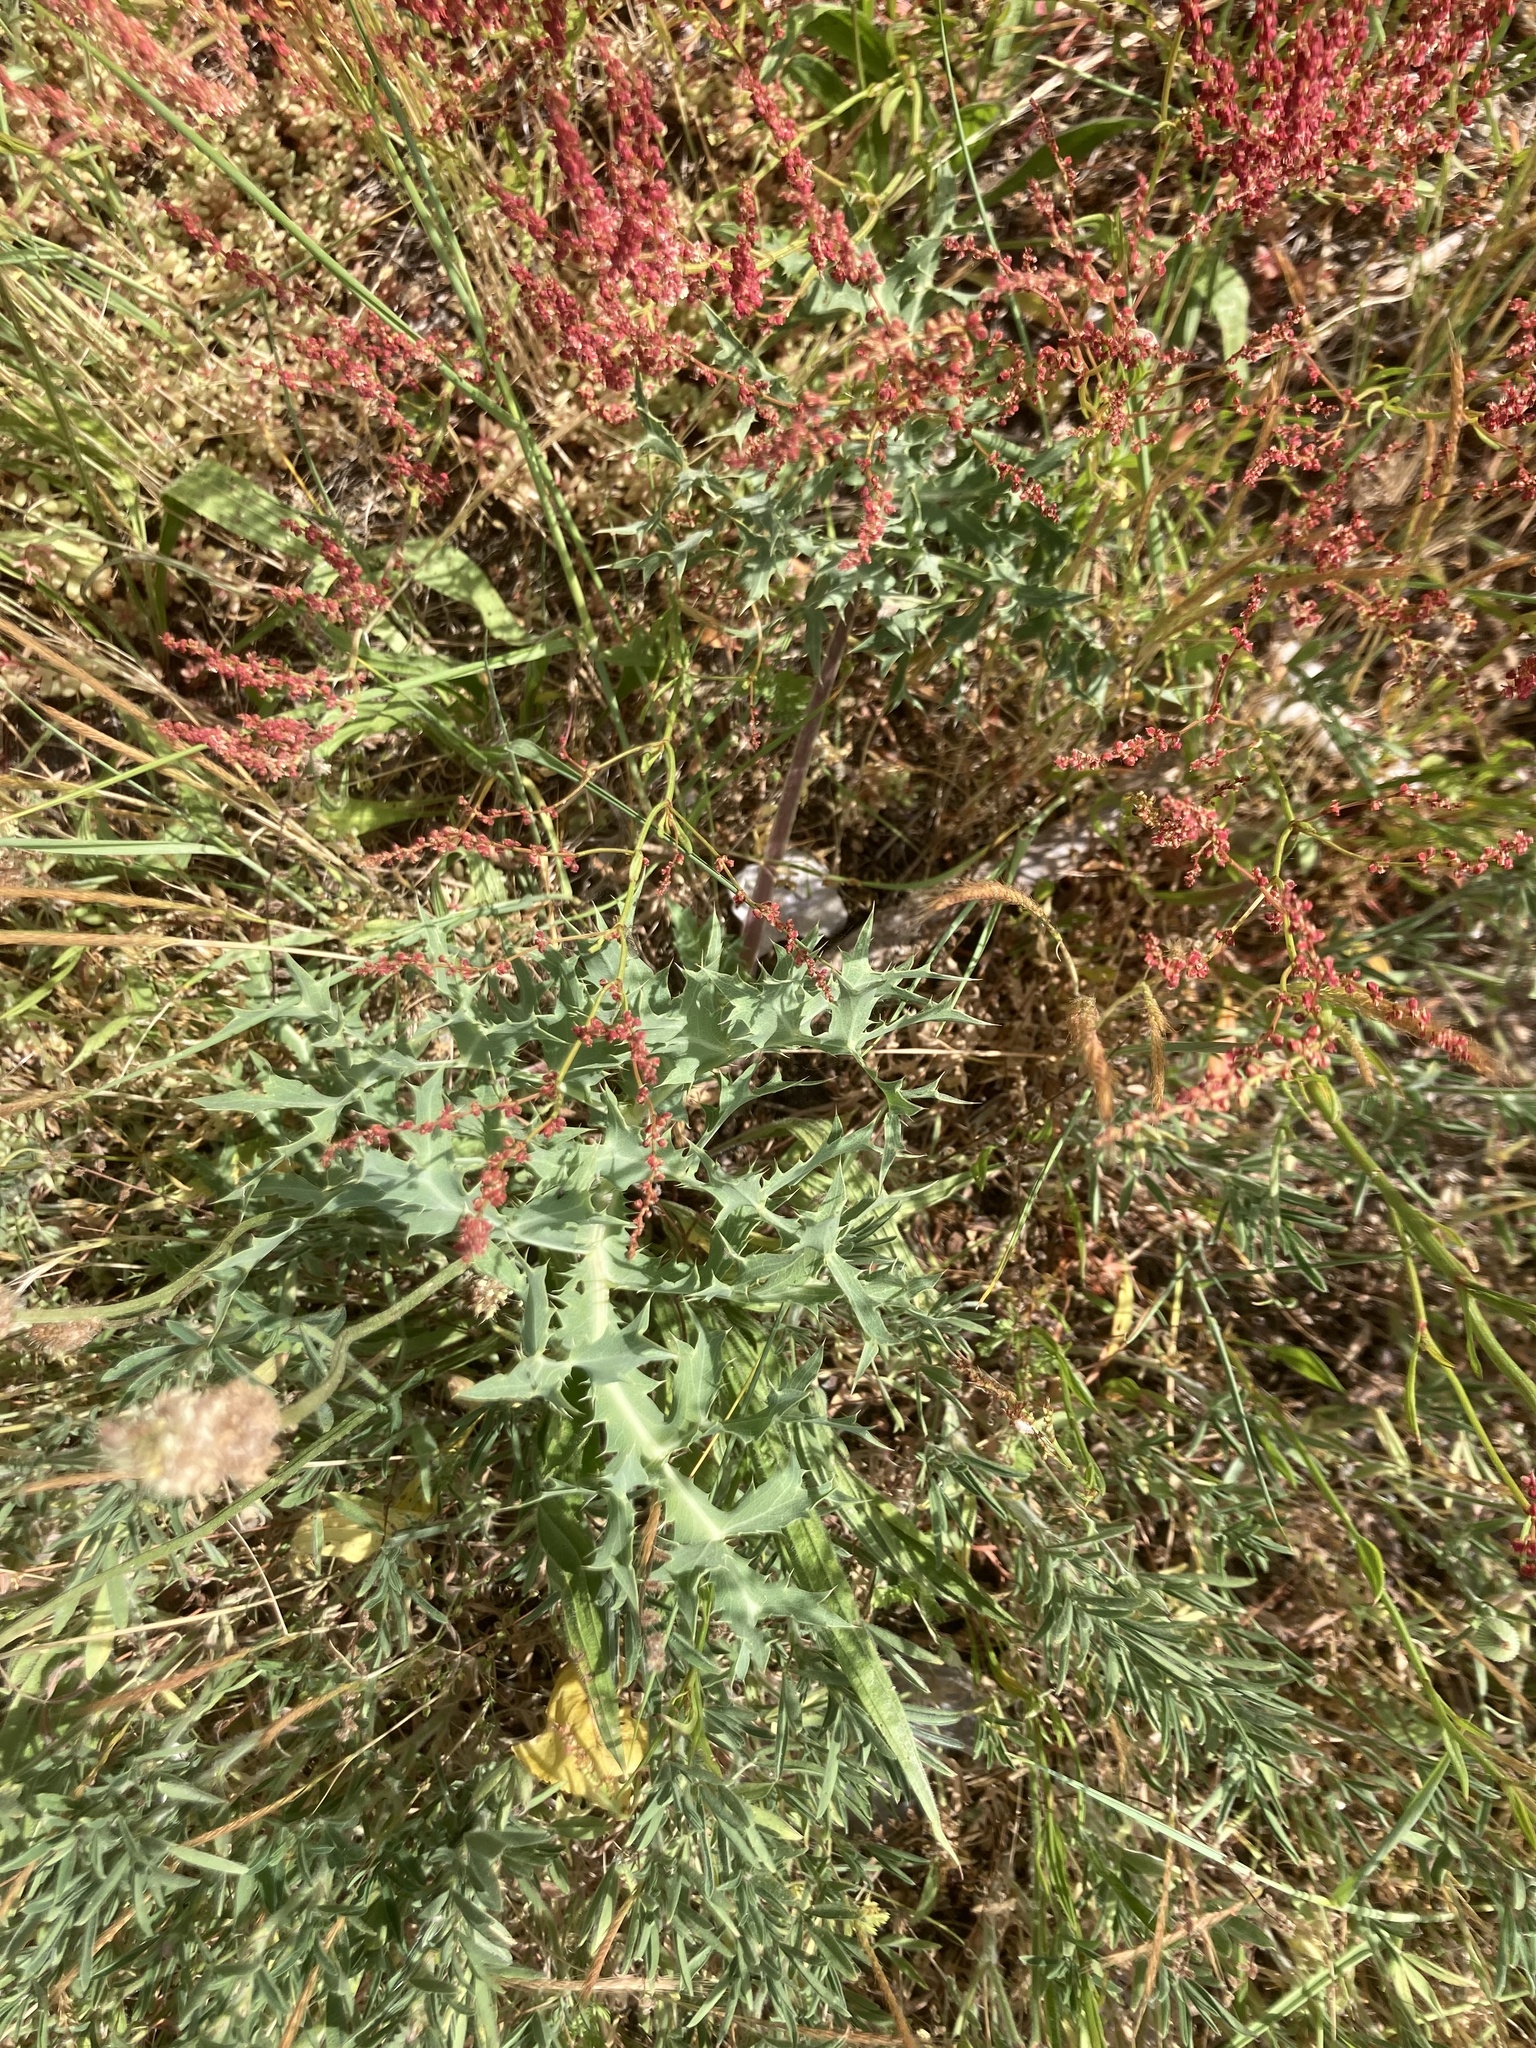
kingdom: Plantae
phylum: Tracheophyta
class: Magnoliopsida
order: Apiales
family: Apiaceae
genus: Eryngium
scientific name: Eryngium campestre
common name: Field eryngo
